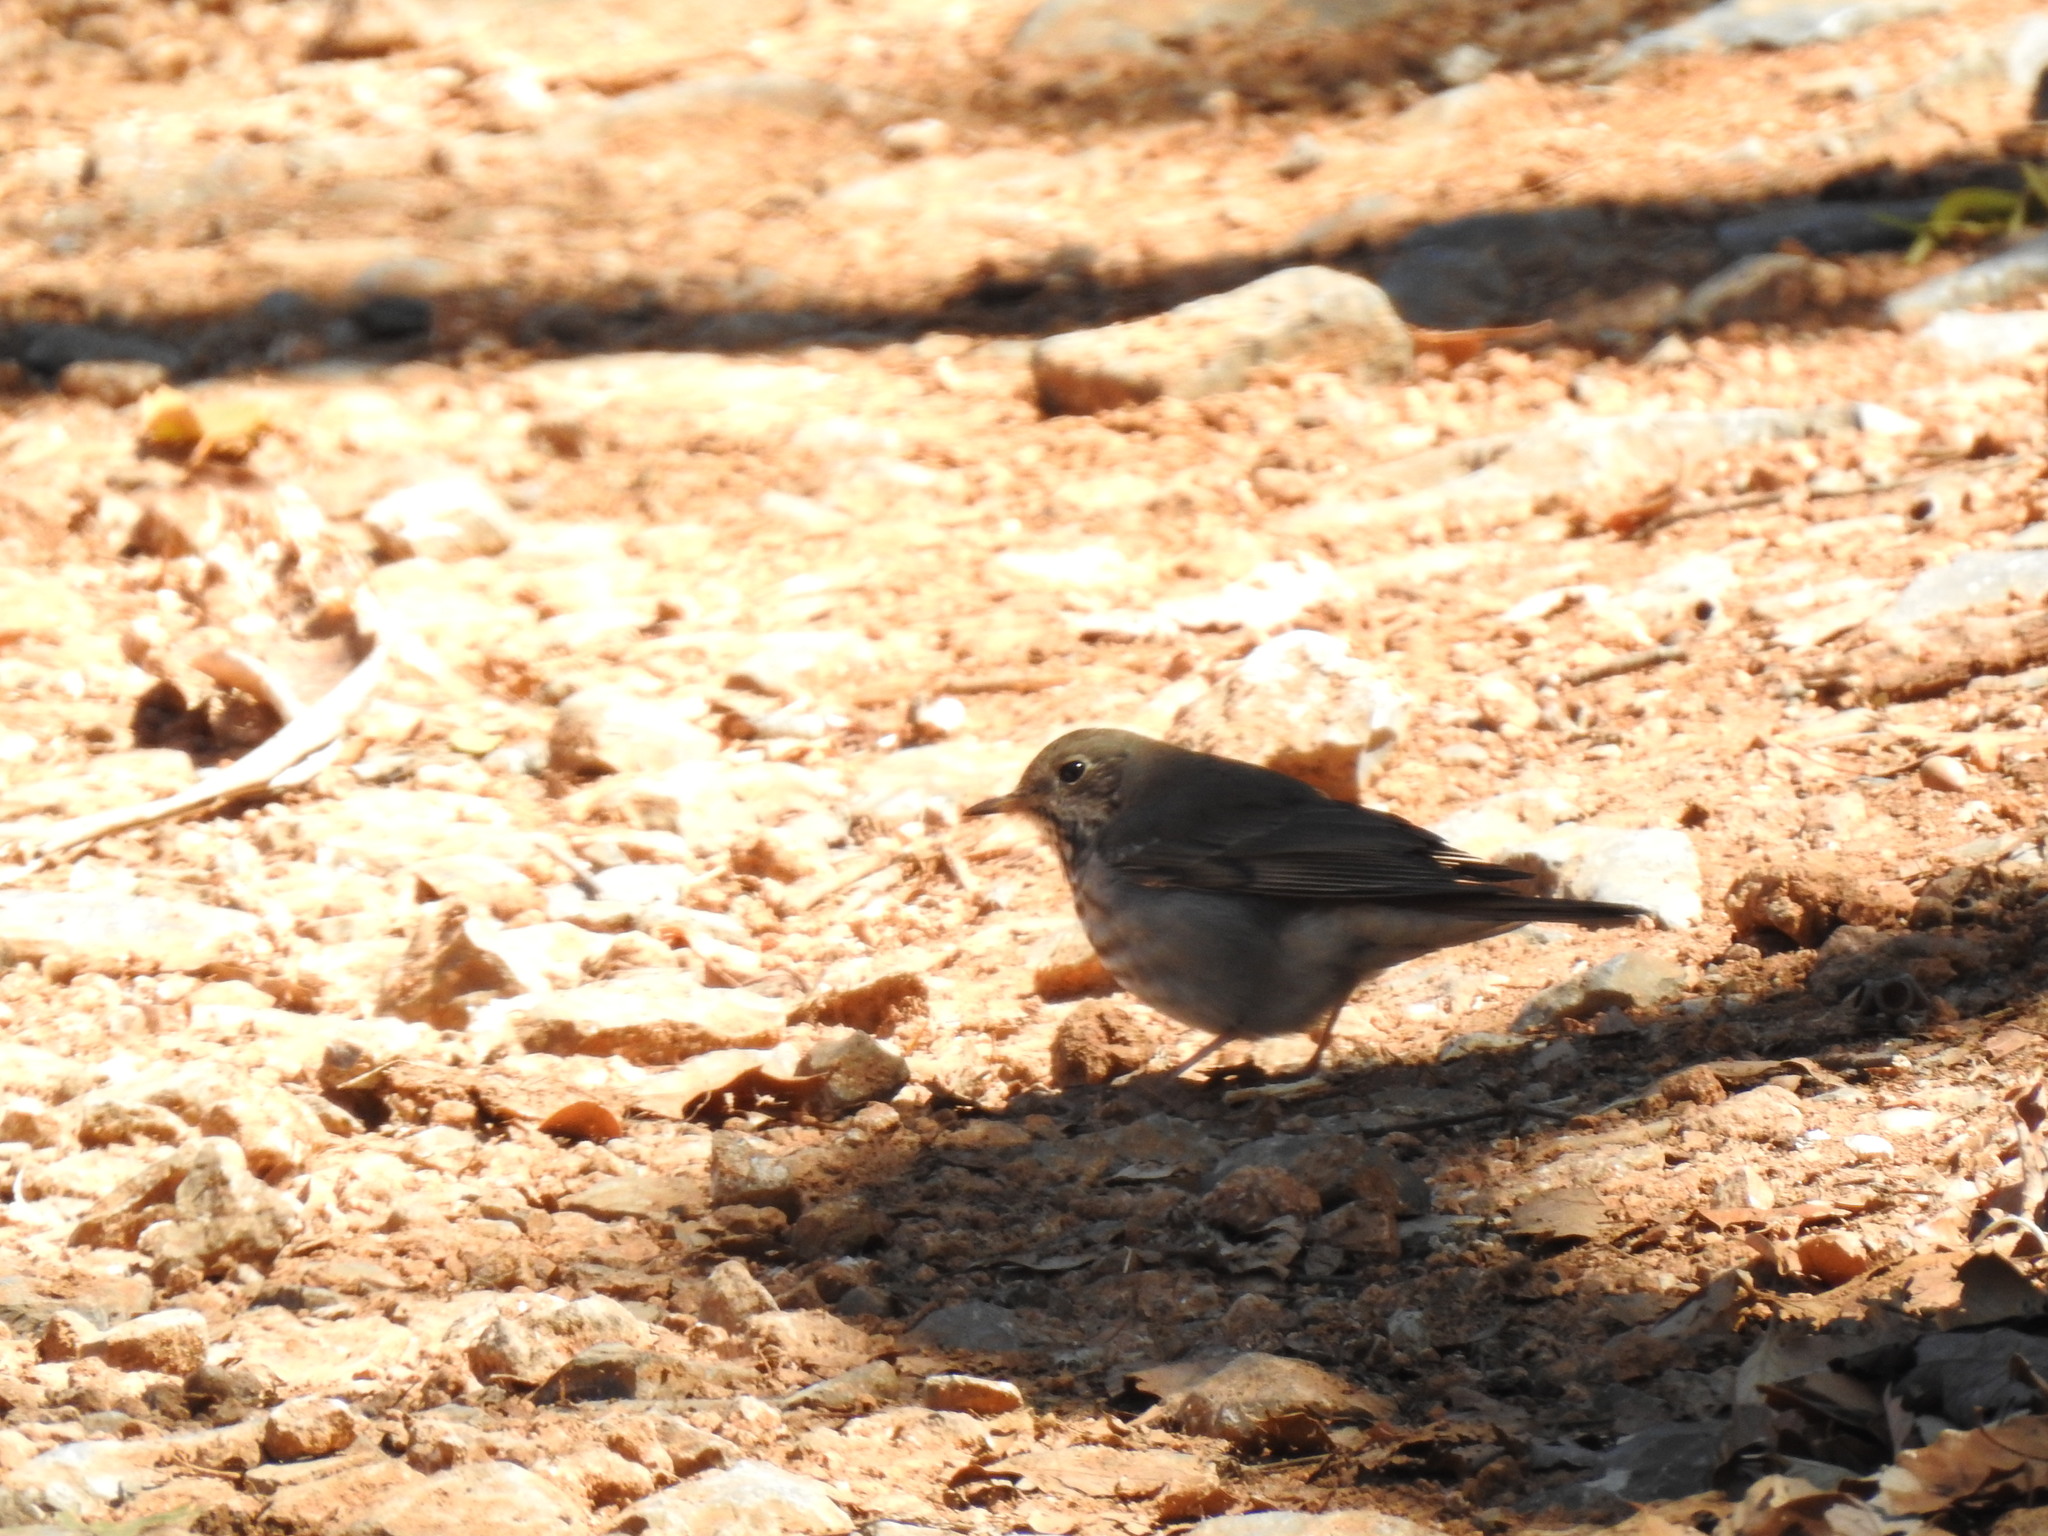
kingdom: Animalia
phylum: Chordata
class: Aves
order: Passeriformes
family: Turdidae
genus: Catharus
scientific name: Catharus guttatus
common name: Hermit thrush
